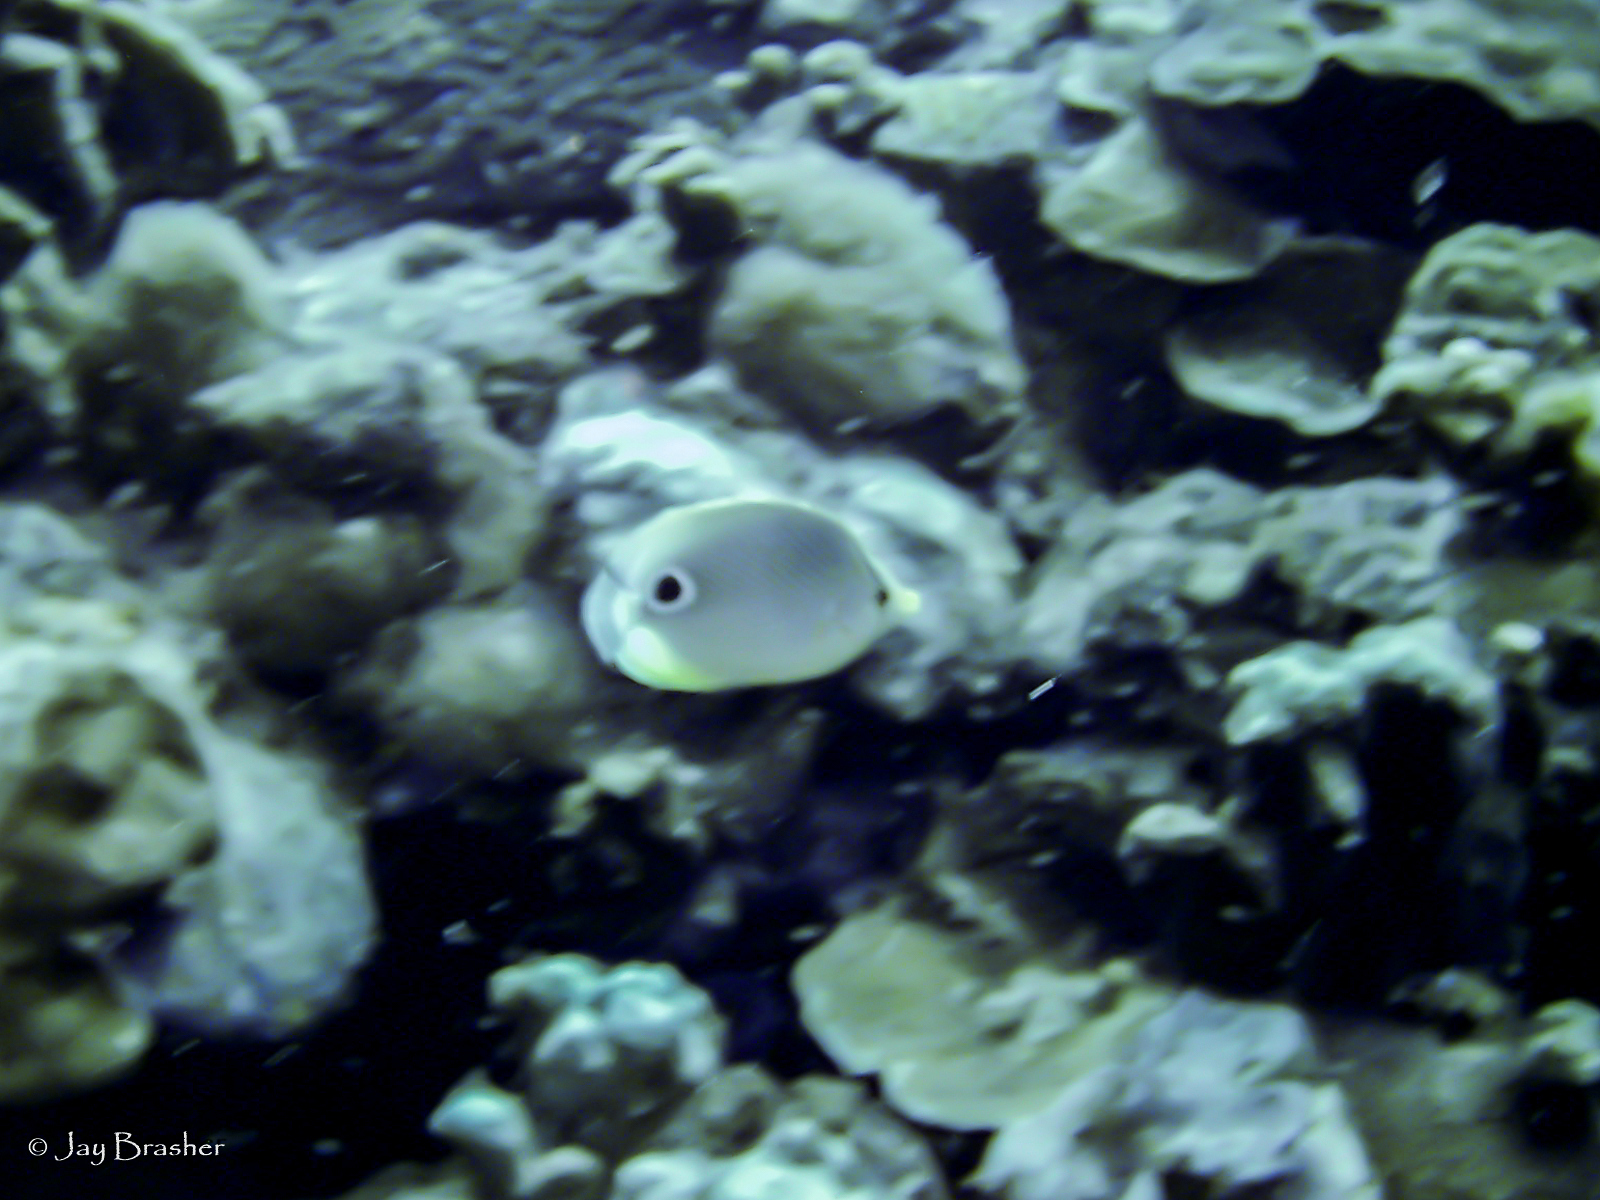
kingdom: Animalia
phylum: Chordata
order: Perciformes
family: Chaetodontidae
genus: Chaetodon
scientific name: Chaetodon capistratus
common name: Kete
